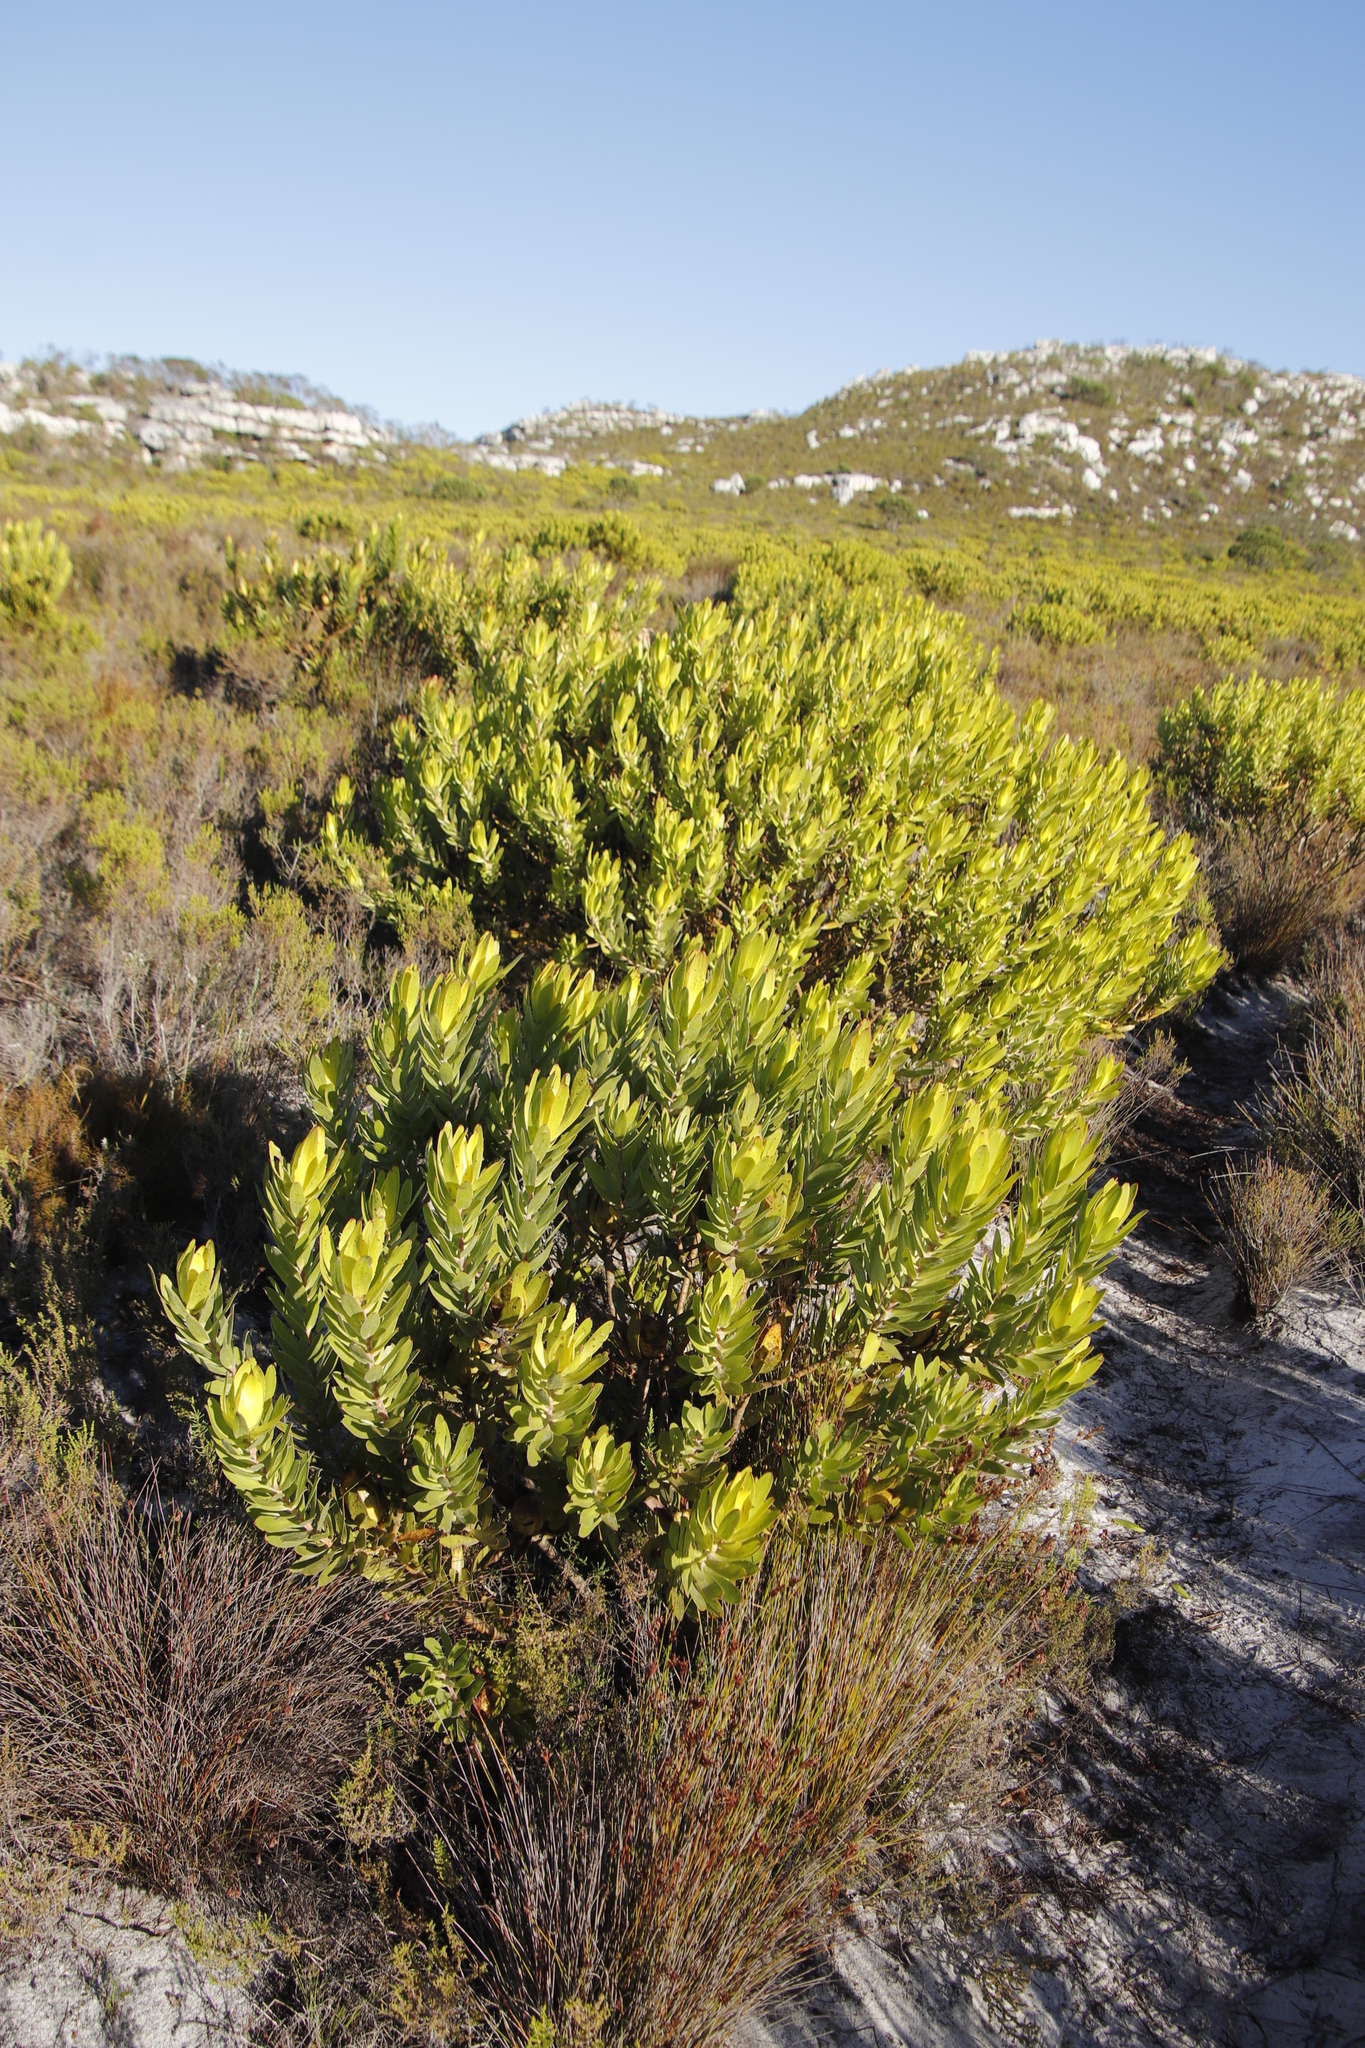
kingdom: Plantae
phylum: Tracheophyta
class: Magnoliopsida
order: Proteales
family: Proteaceae
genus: Leucadendron
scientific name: Leucadendron laureolum
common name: Golden sunshinebush
